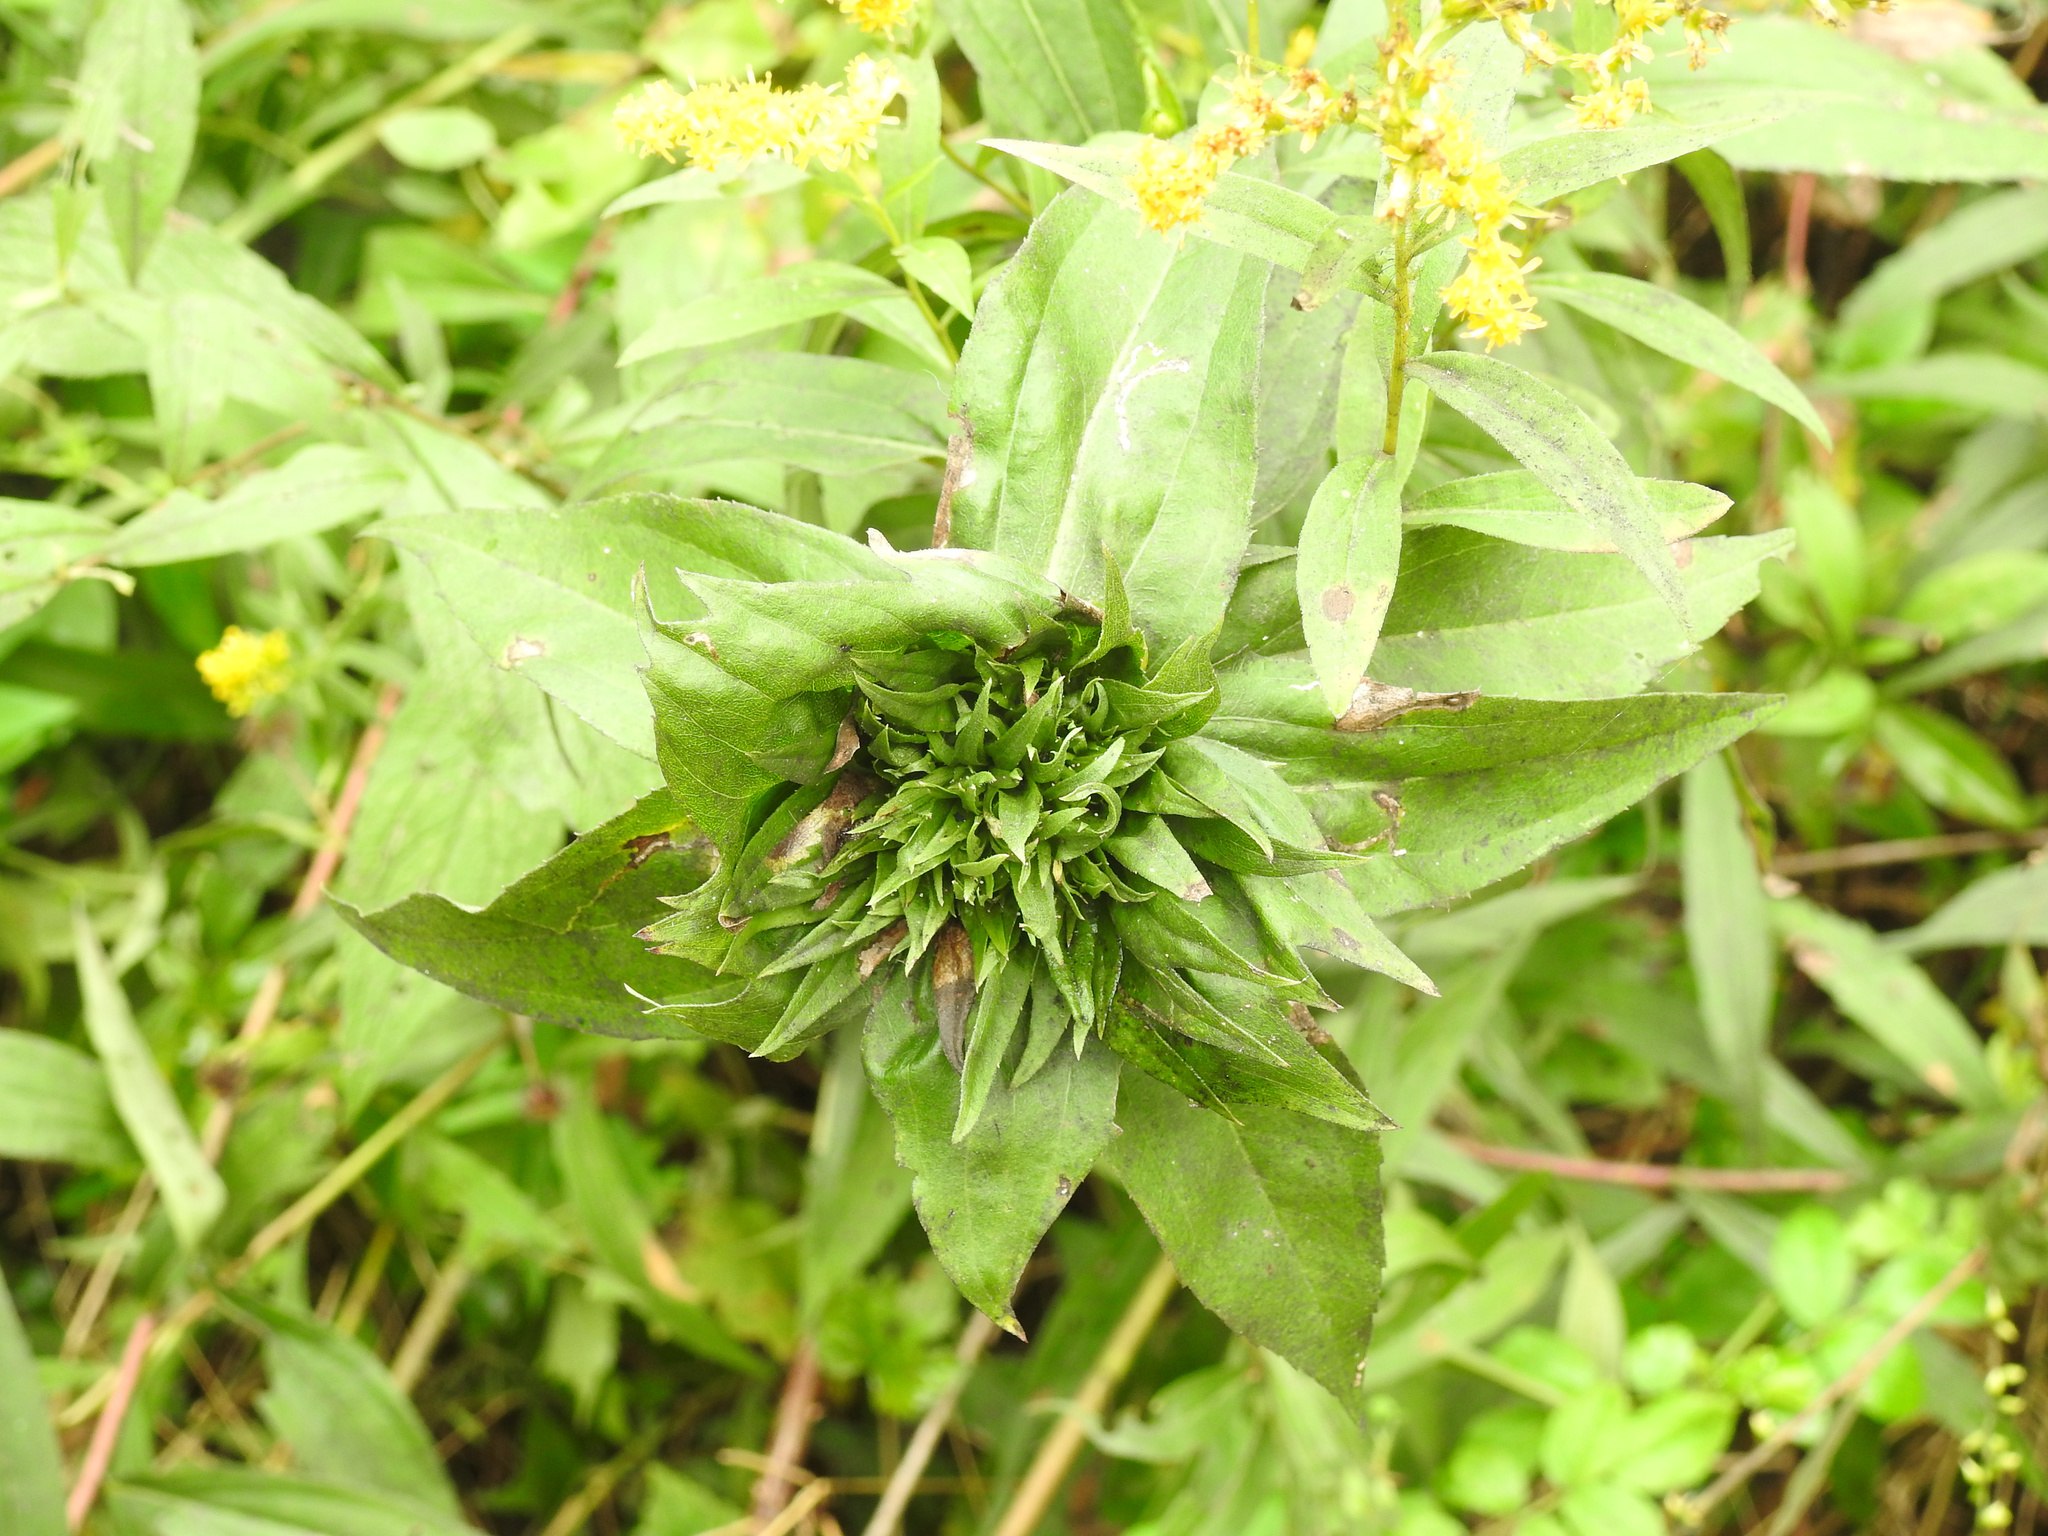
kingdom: Animalia
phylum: Arthropoda
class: Insecta
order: Diptera
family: Cecidomyiidae
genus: Rhopalomyia
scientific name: Rhopalomyia capitata
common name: Giant goldenrod bunch gall midge
